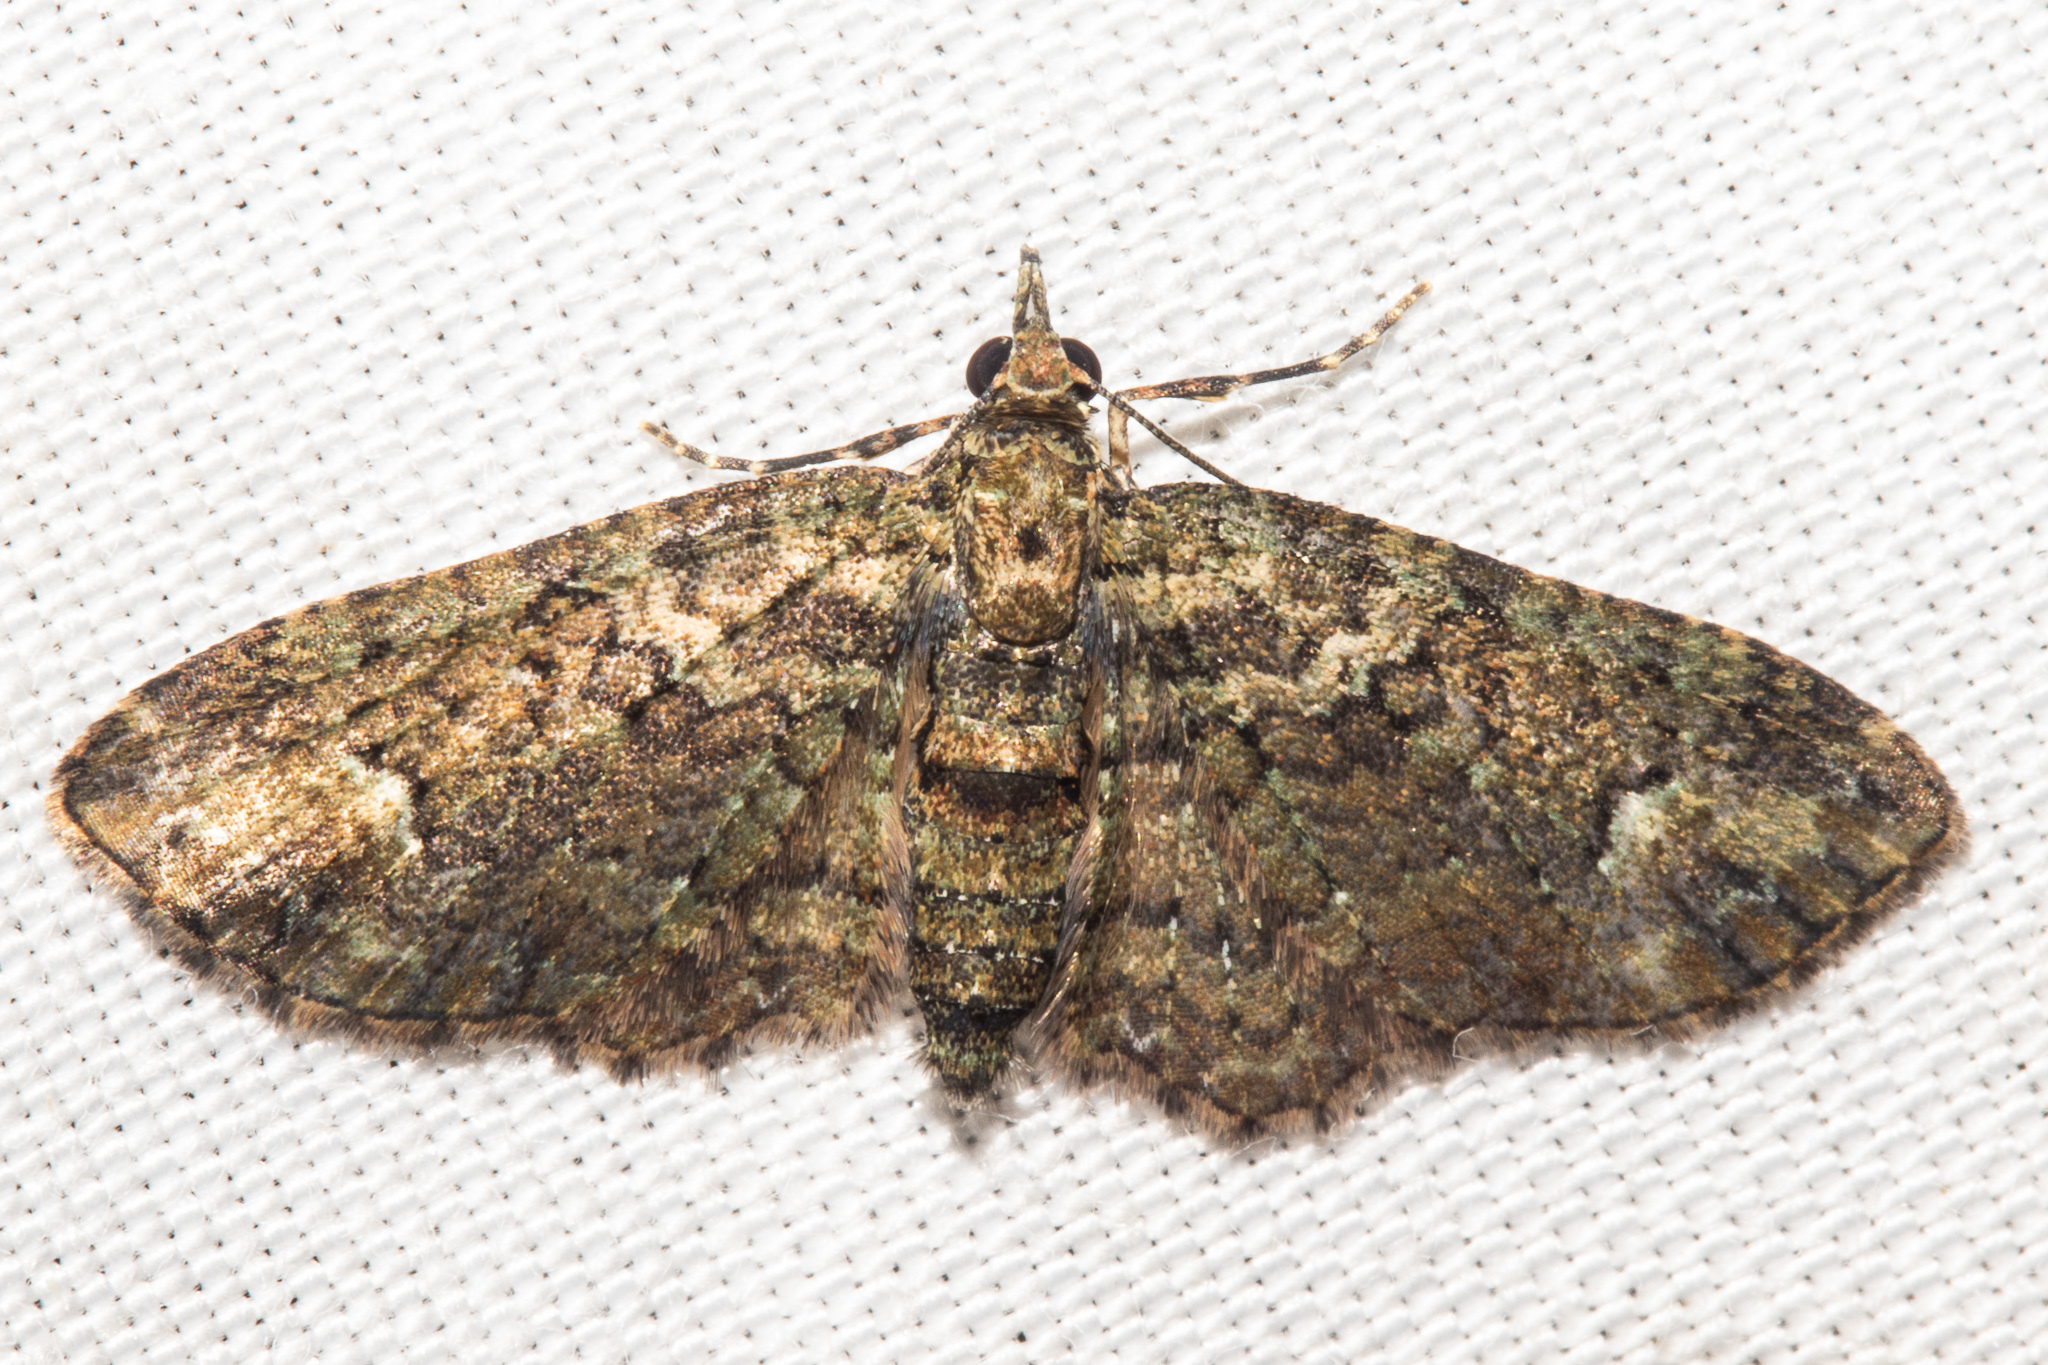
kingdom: Animalia
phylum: Arthropoda
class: Insecta
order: Lepidoptera
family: Geometridae
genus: Pasiphilodes
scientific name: Pasiphilodes testulata
